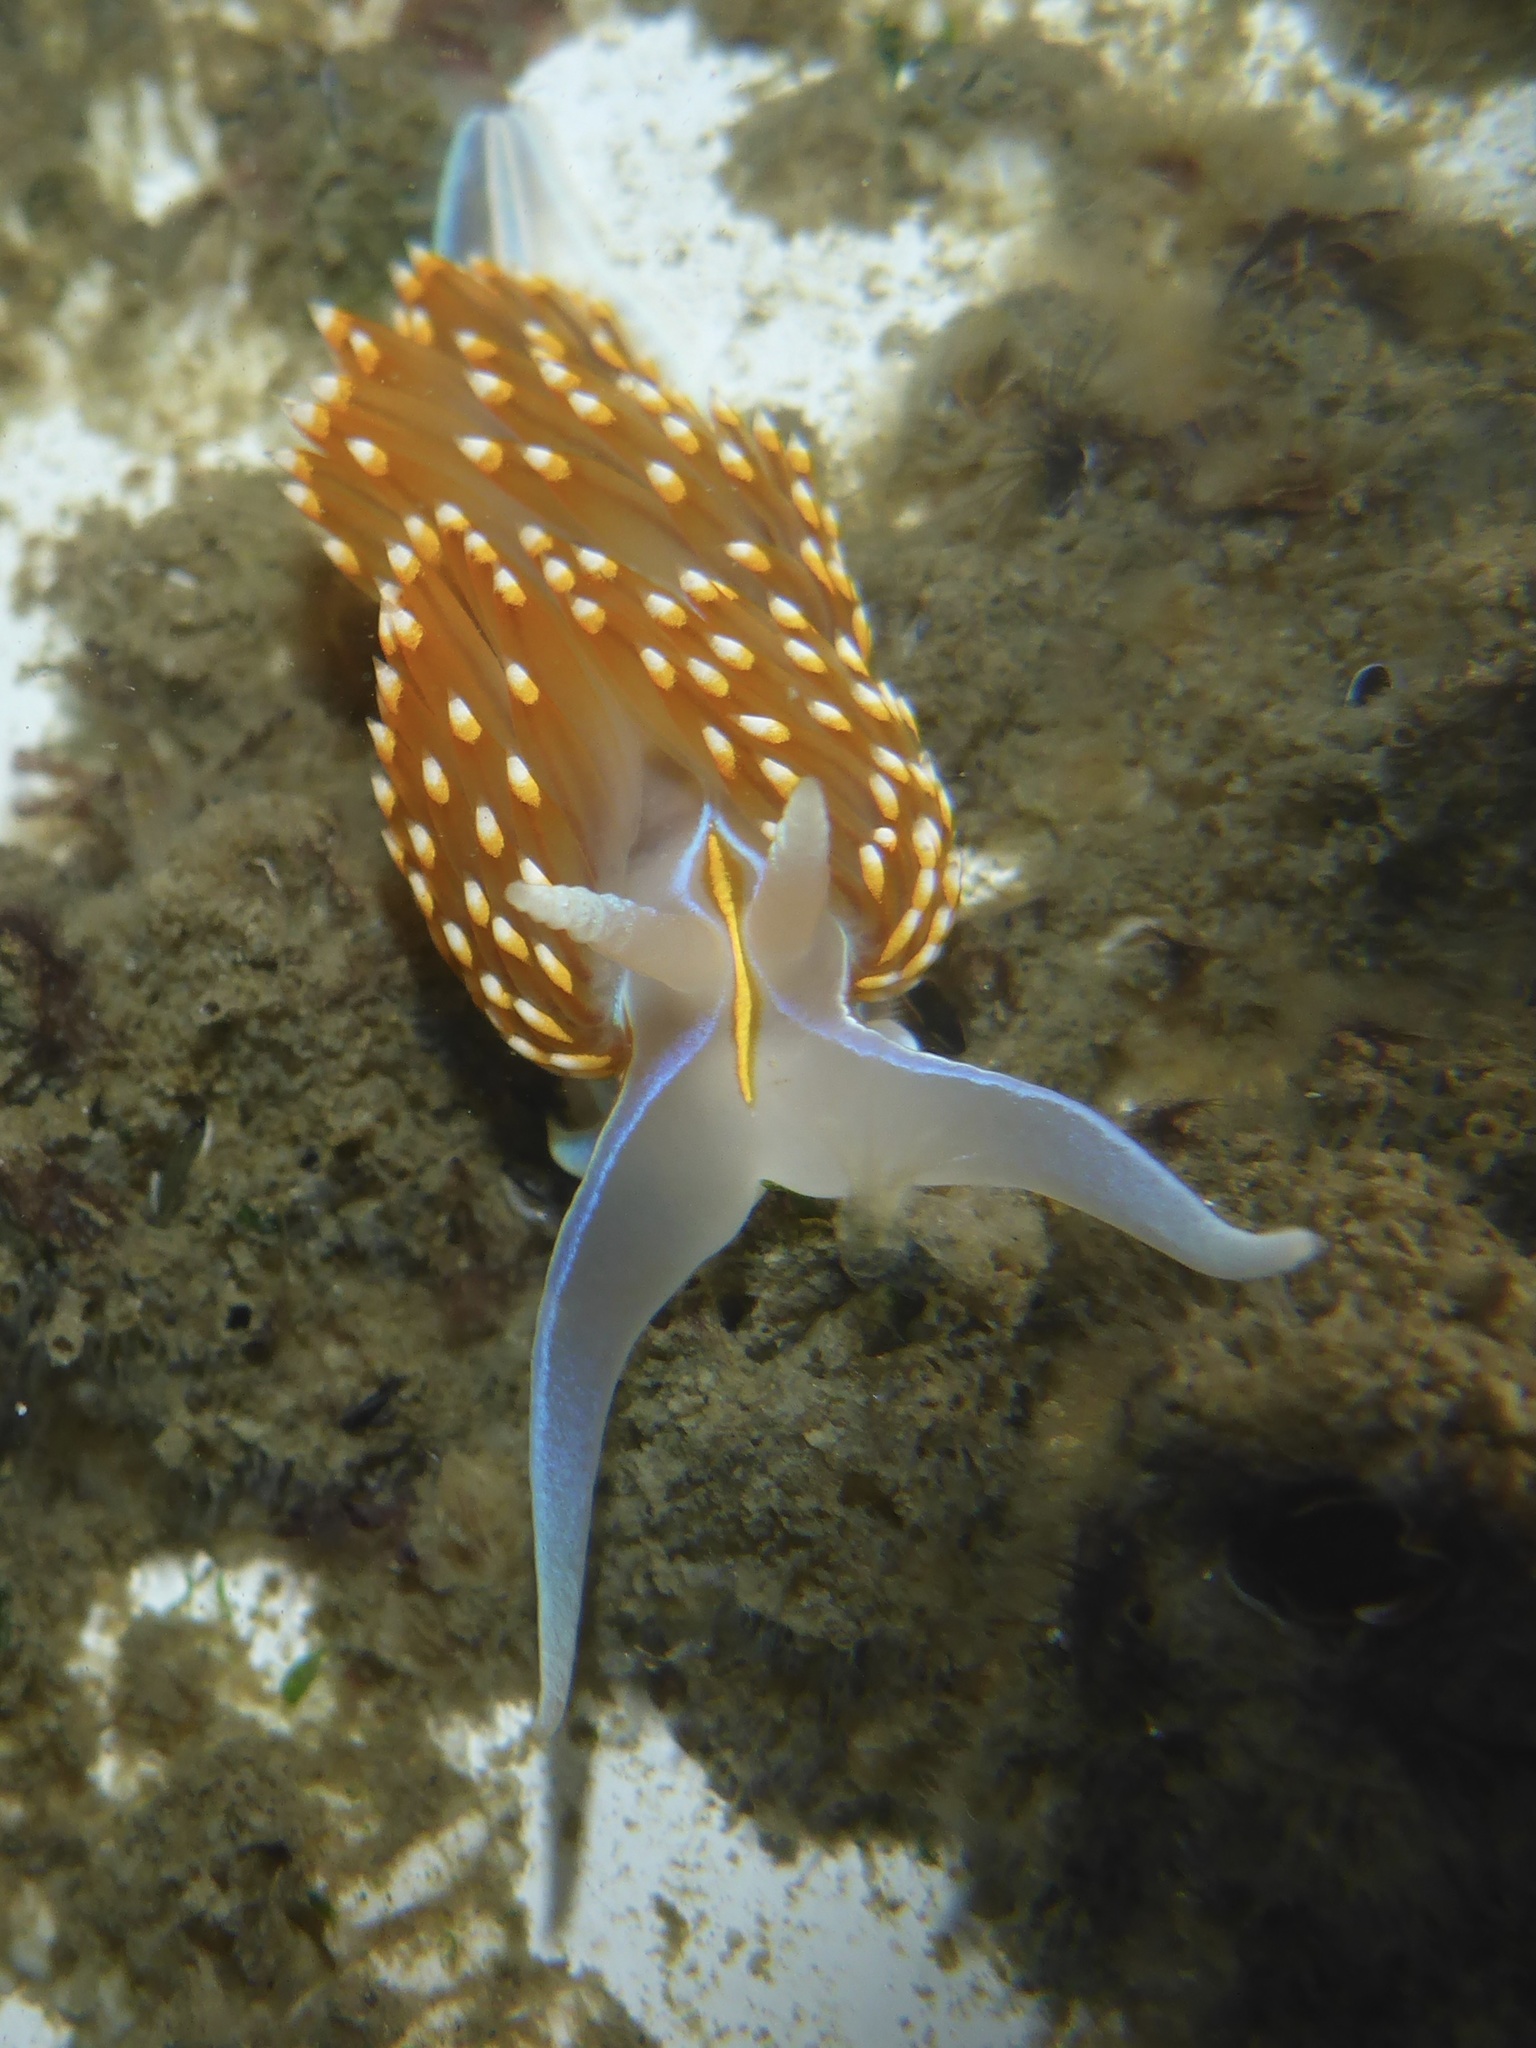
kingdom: Animalia
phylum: Mollusca
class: Gastropoda
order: Nudibranchia
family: Myrrhinidae
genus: Hermissenda
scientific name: Hermissenda opalescens
